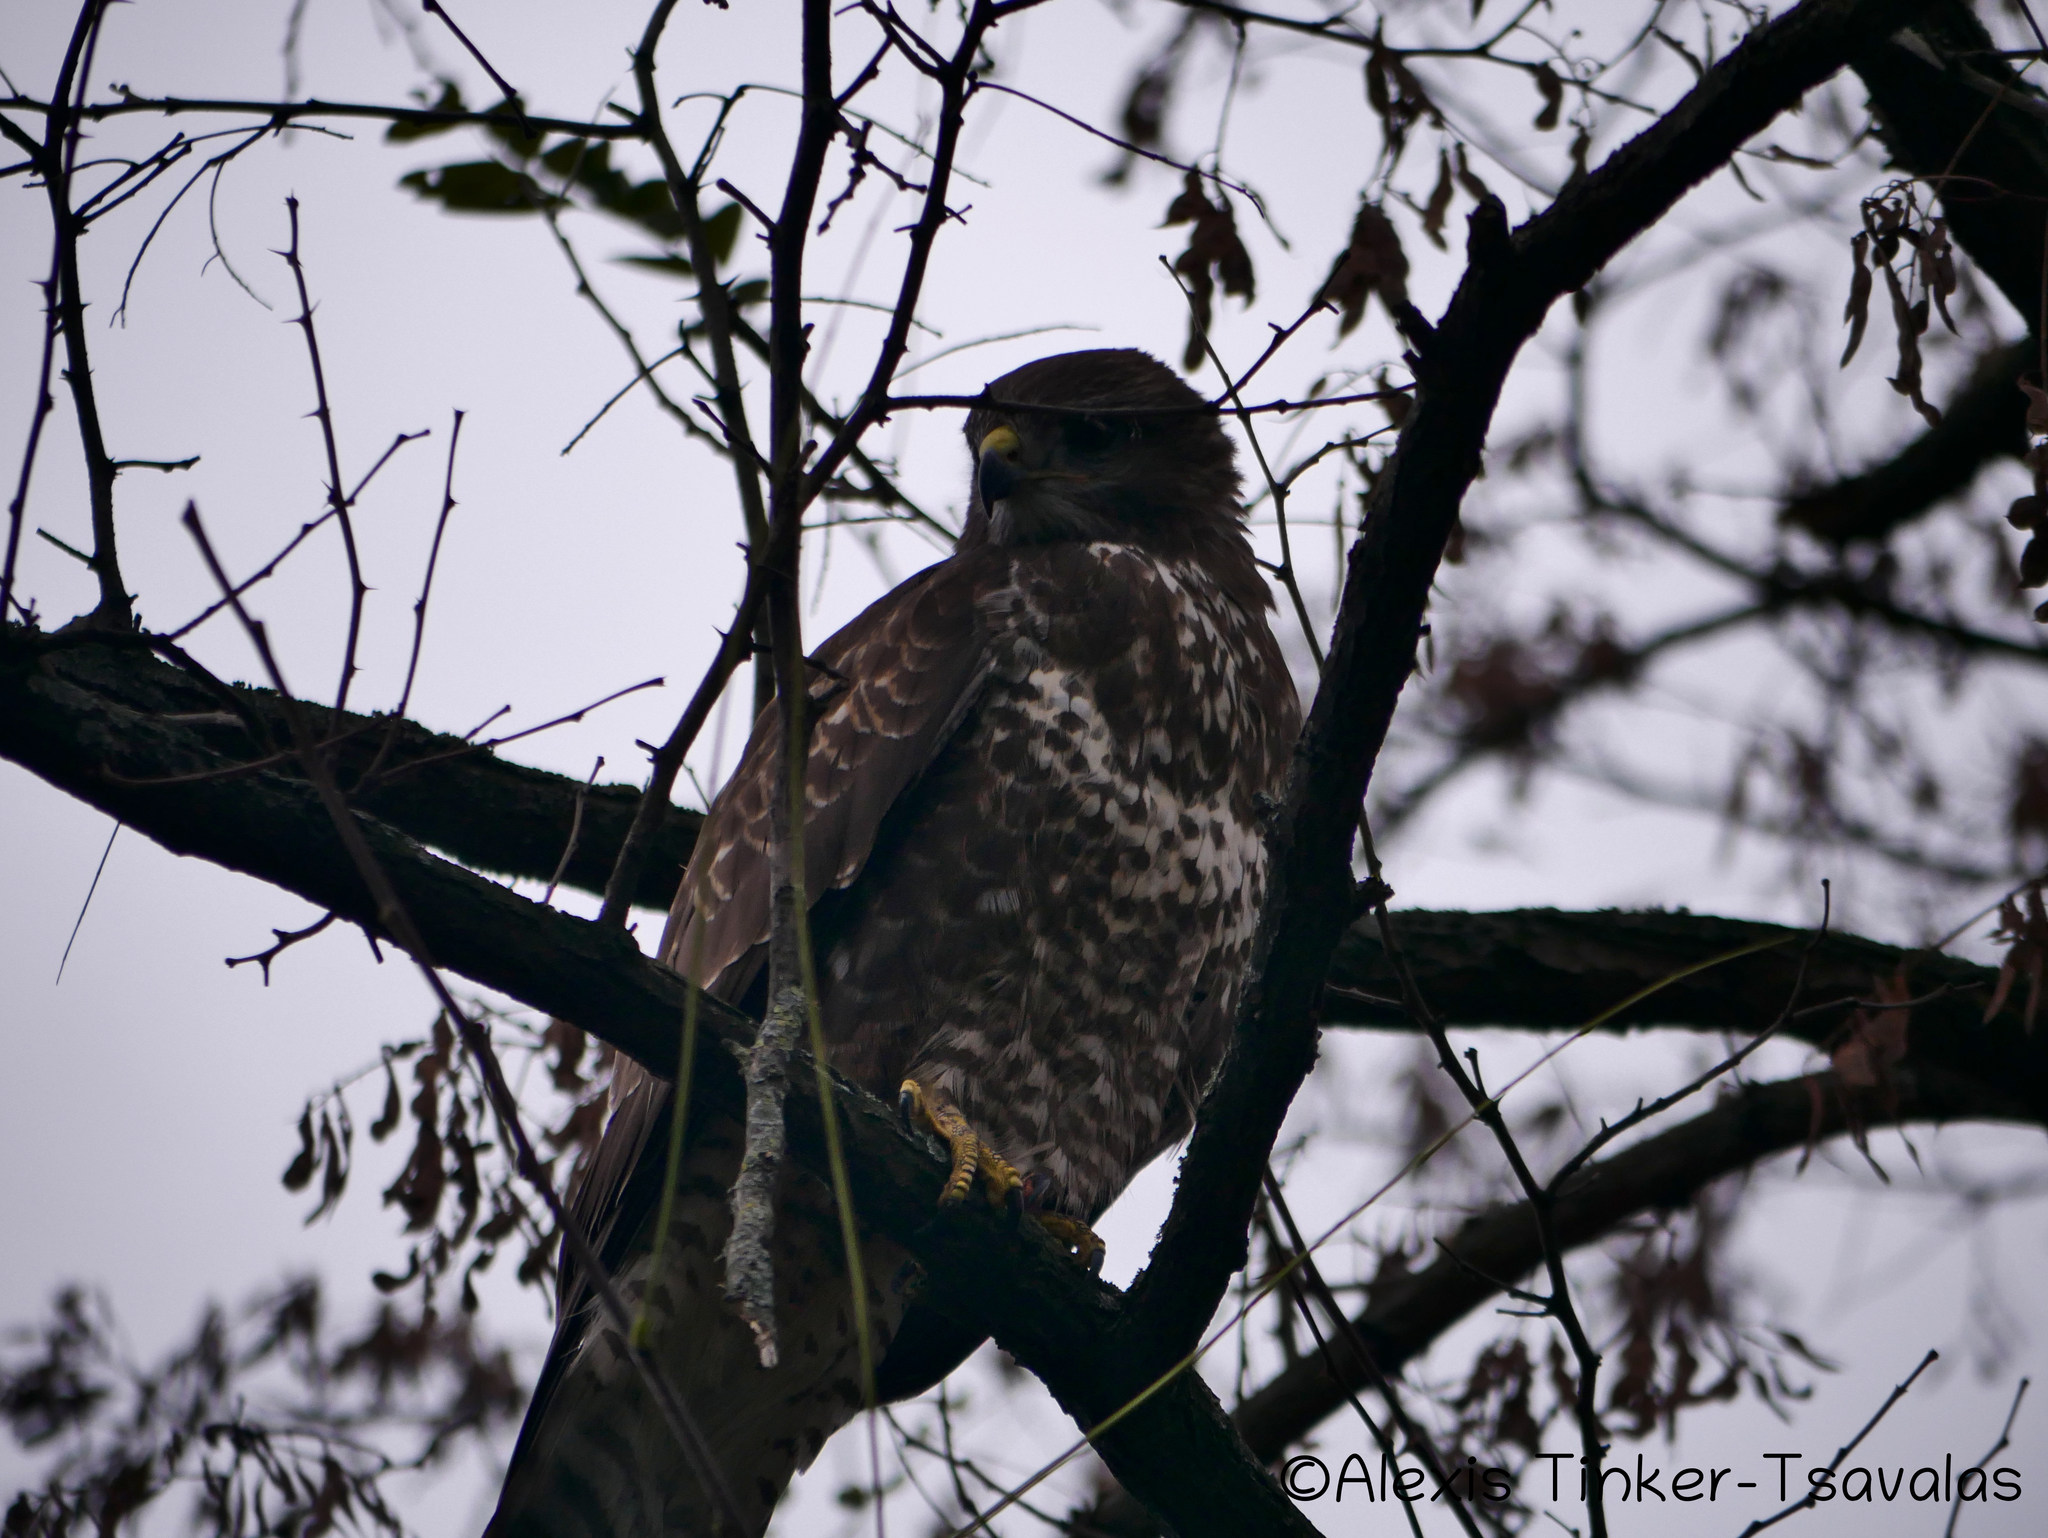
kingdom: Animalia
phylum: Chordata
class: Aves
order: Accipitriformes
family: Accipitridae
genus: Buteo
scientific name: Buteo buteo
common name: Common buzzard
